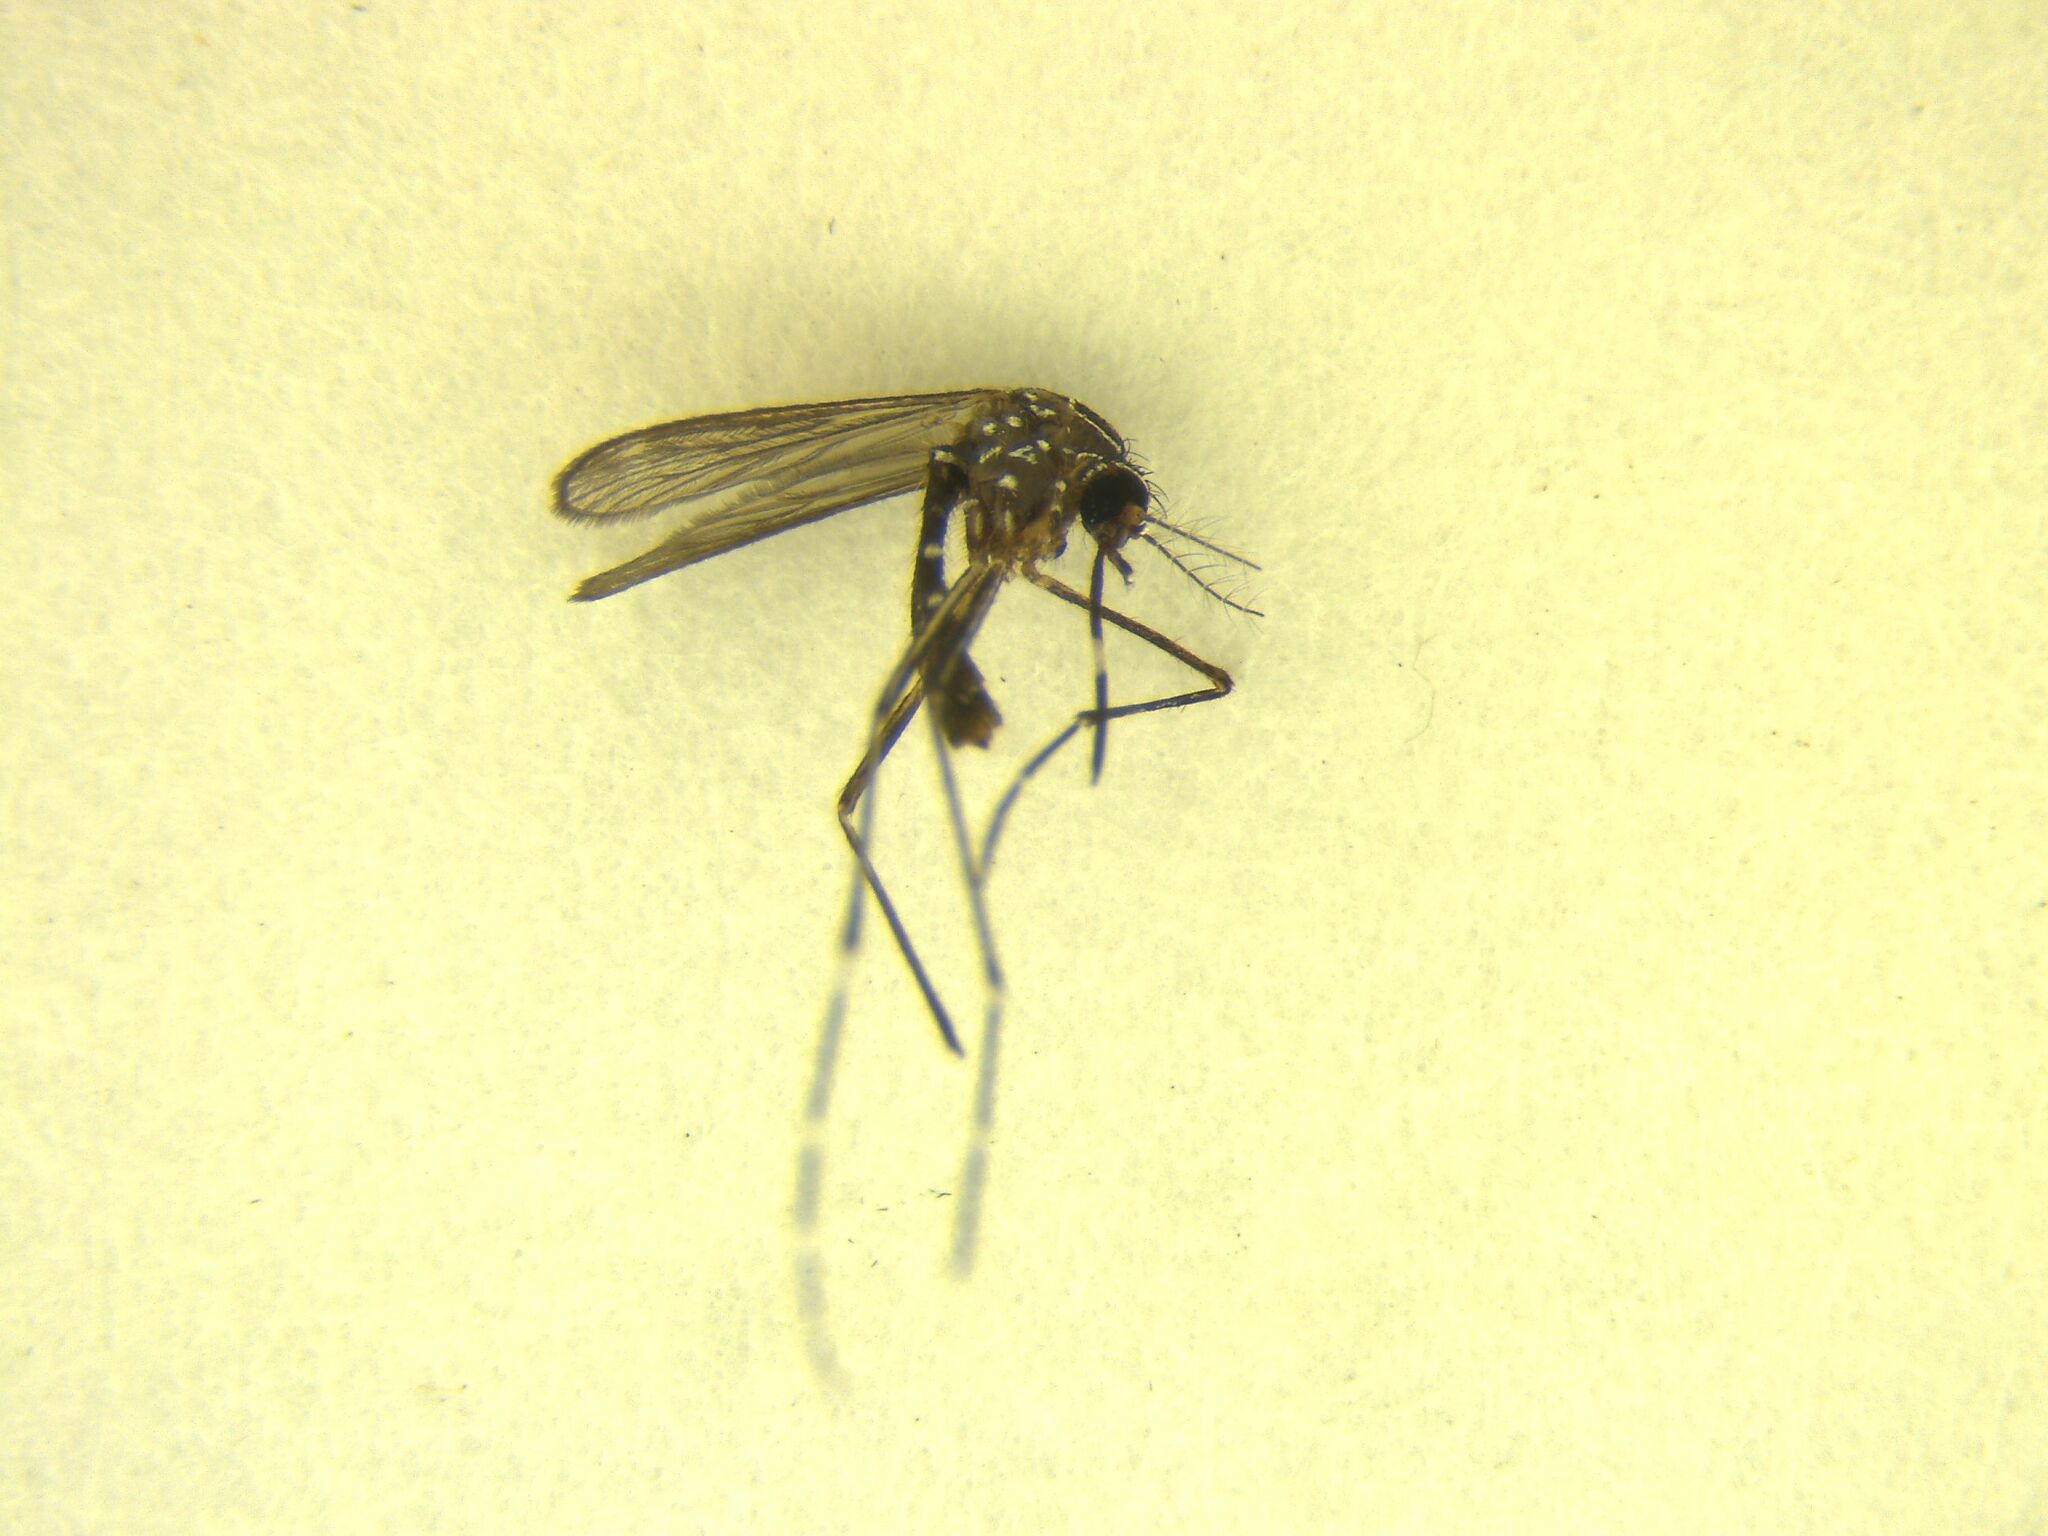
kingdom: Animalia
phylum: Arthropoda
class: Insecta
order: Diptera
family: Culicidae
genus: Aedes
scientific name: Aedes notoscriptus
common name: Australian backyard mosquito
